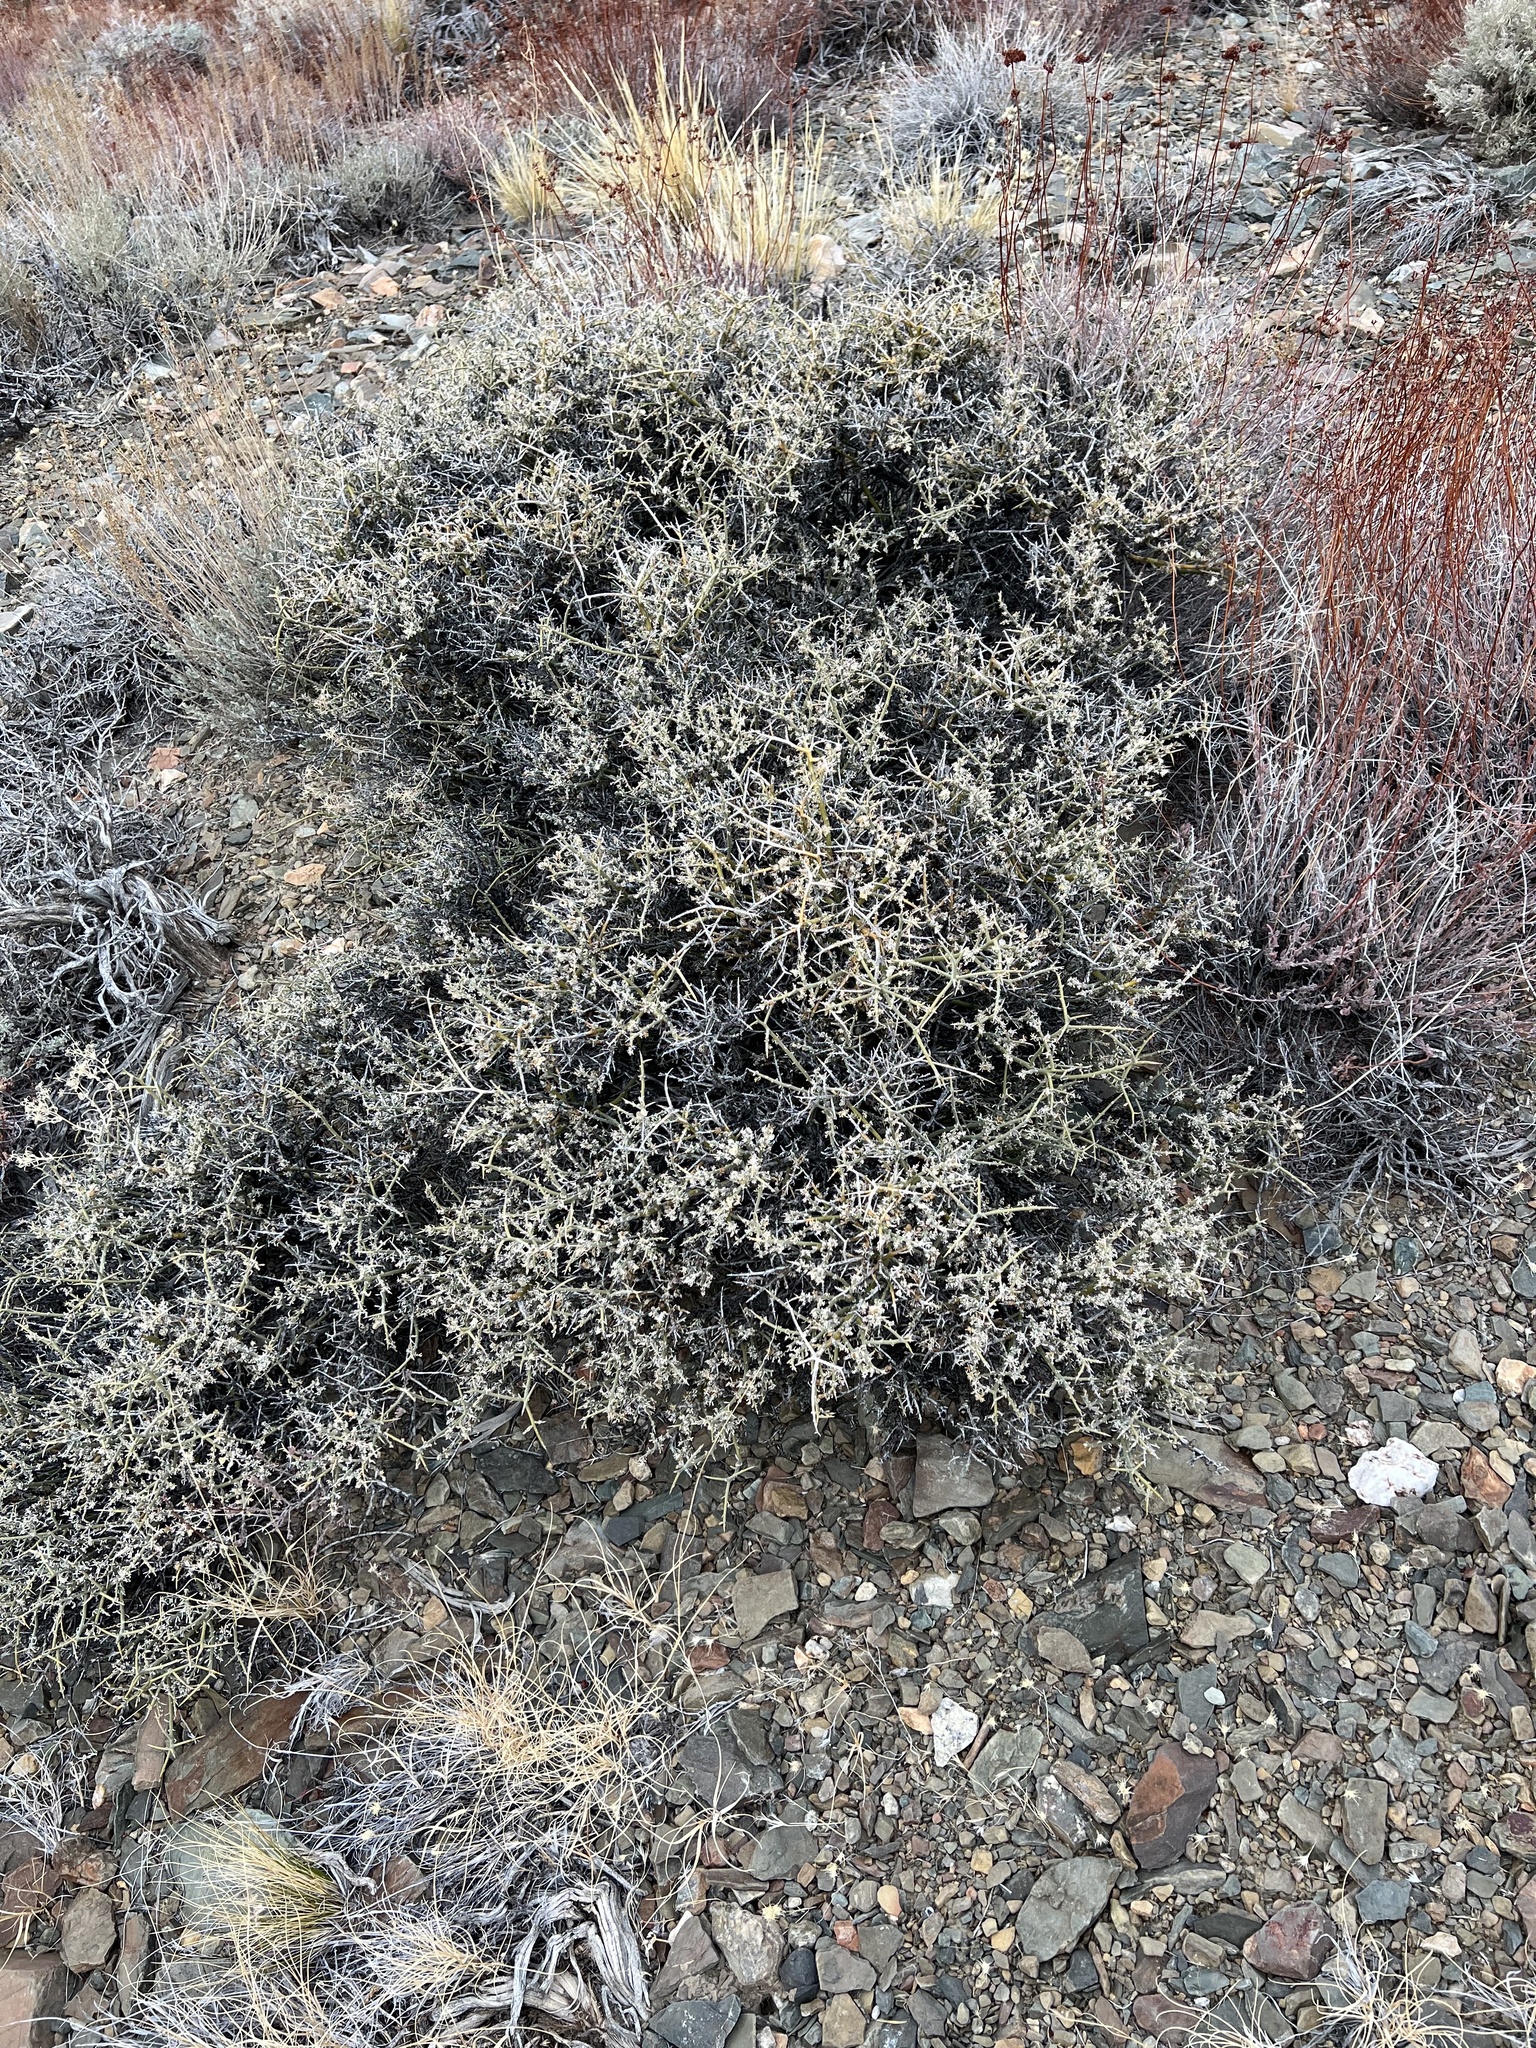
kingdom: Plantae
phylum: Tracheophyta
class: Magnoliopsida
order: Lamiales
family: Oleaceae
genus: Menodora
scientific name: Menodora spinescens
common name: Spiny menodora
